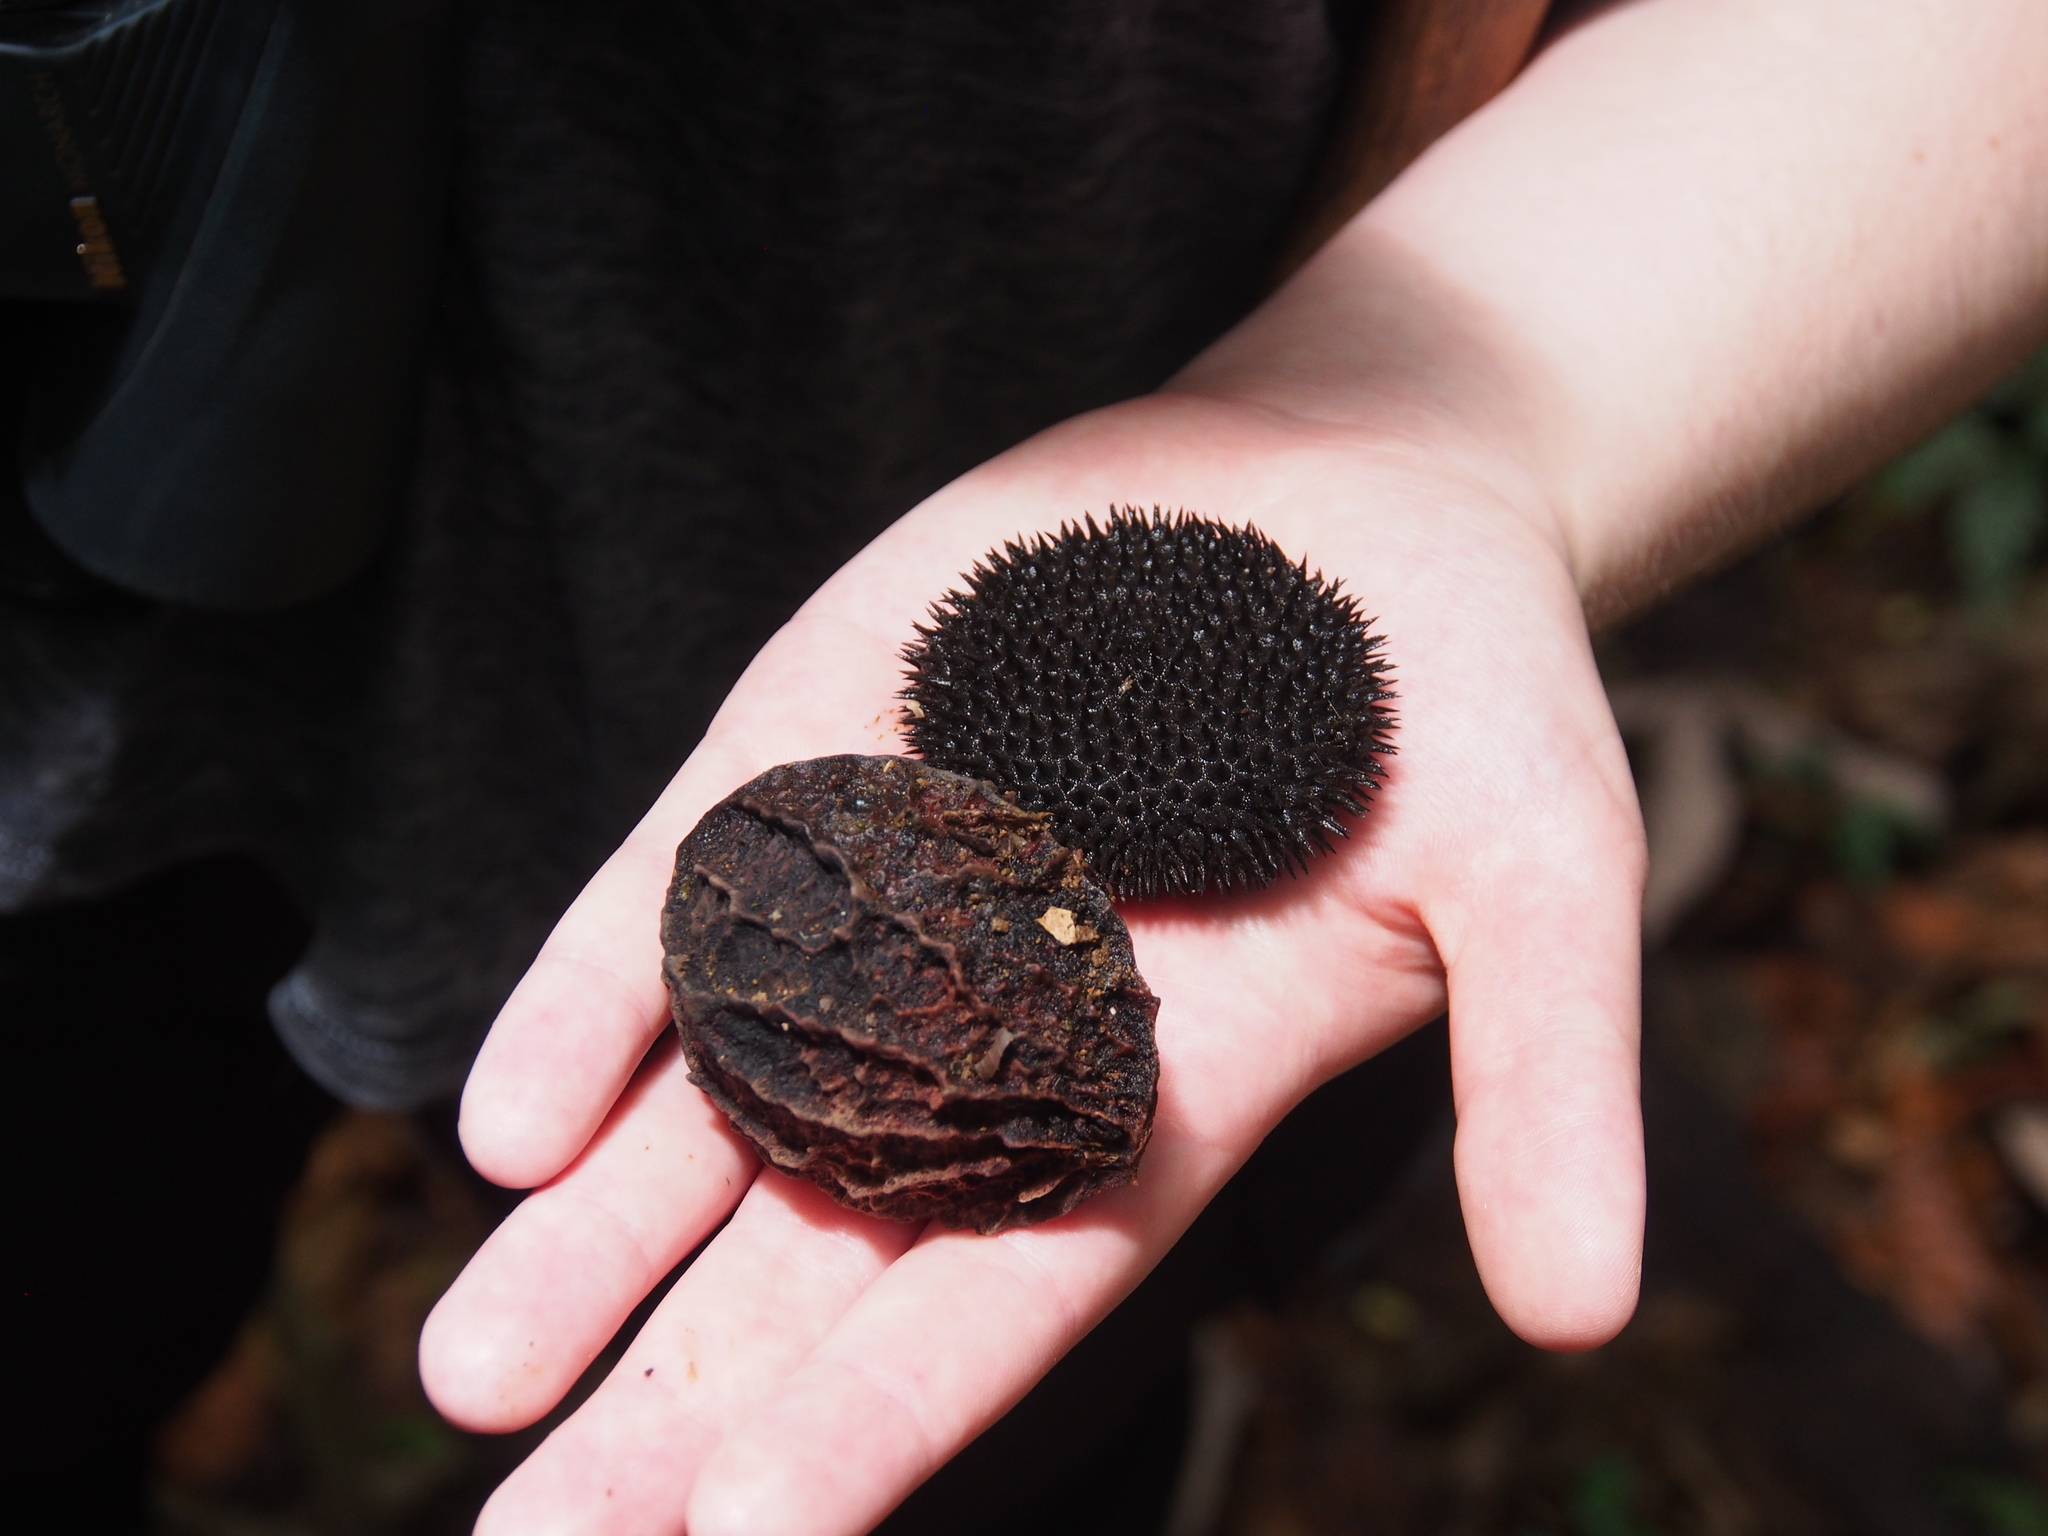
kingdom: Plantae
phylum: Tracheophyta
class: Magnoliopsida
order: Malvales
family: Malvaceae
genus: Apeiba
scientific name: Apeiba membranacea
